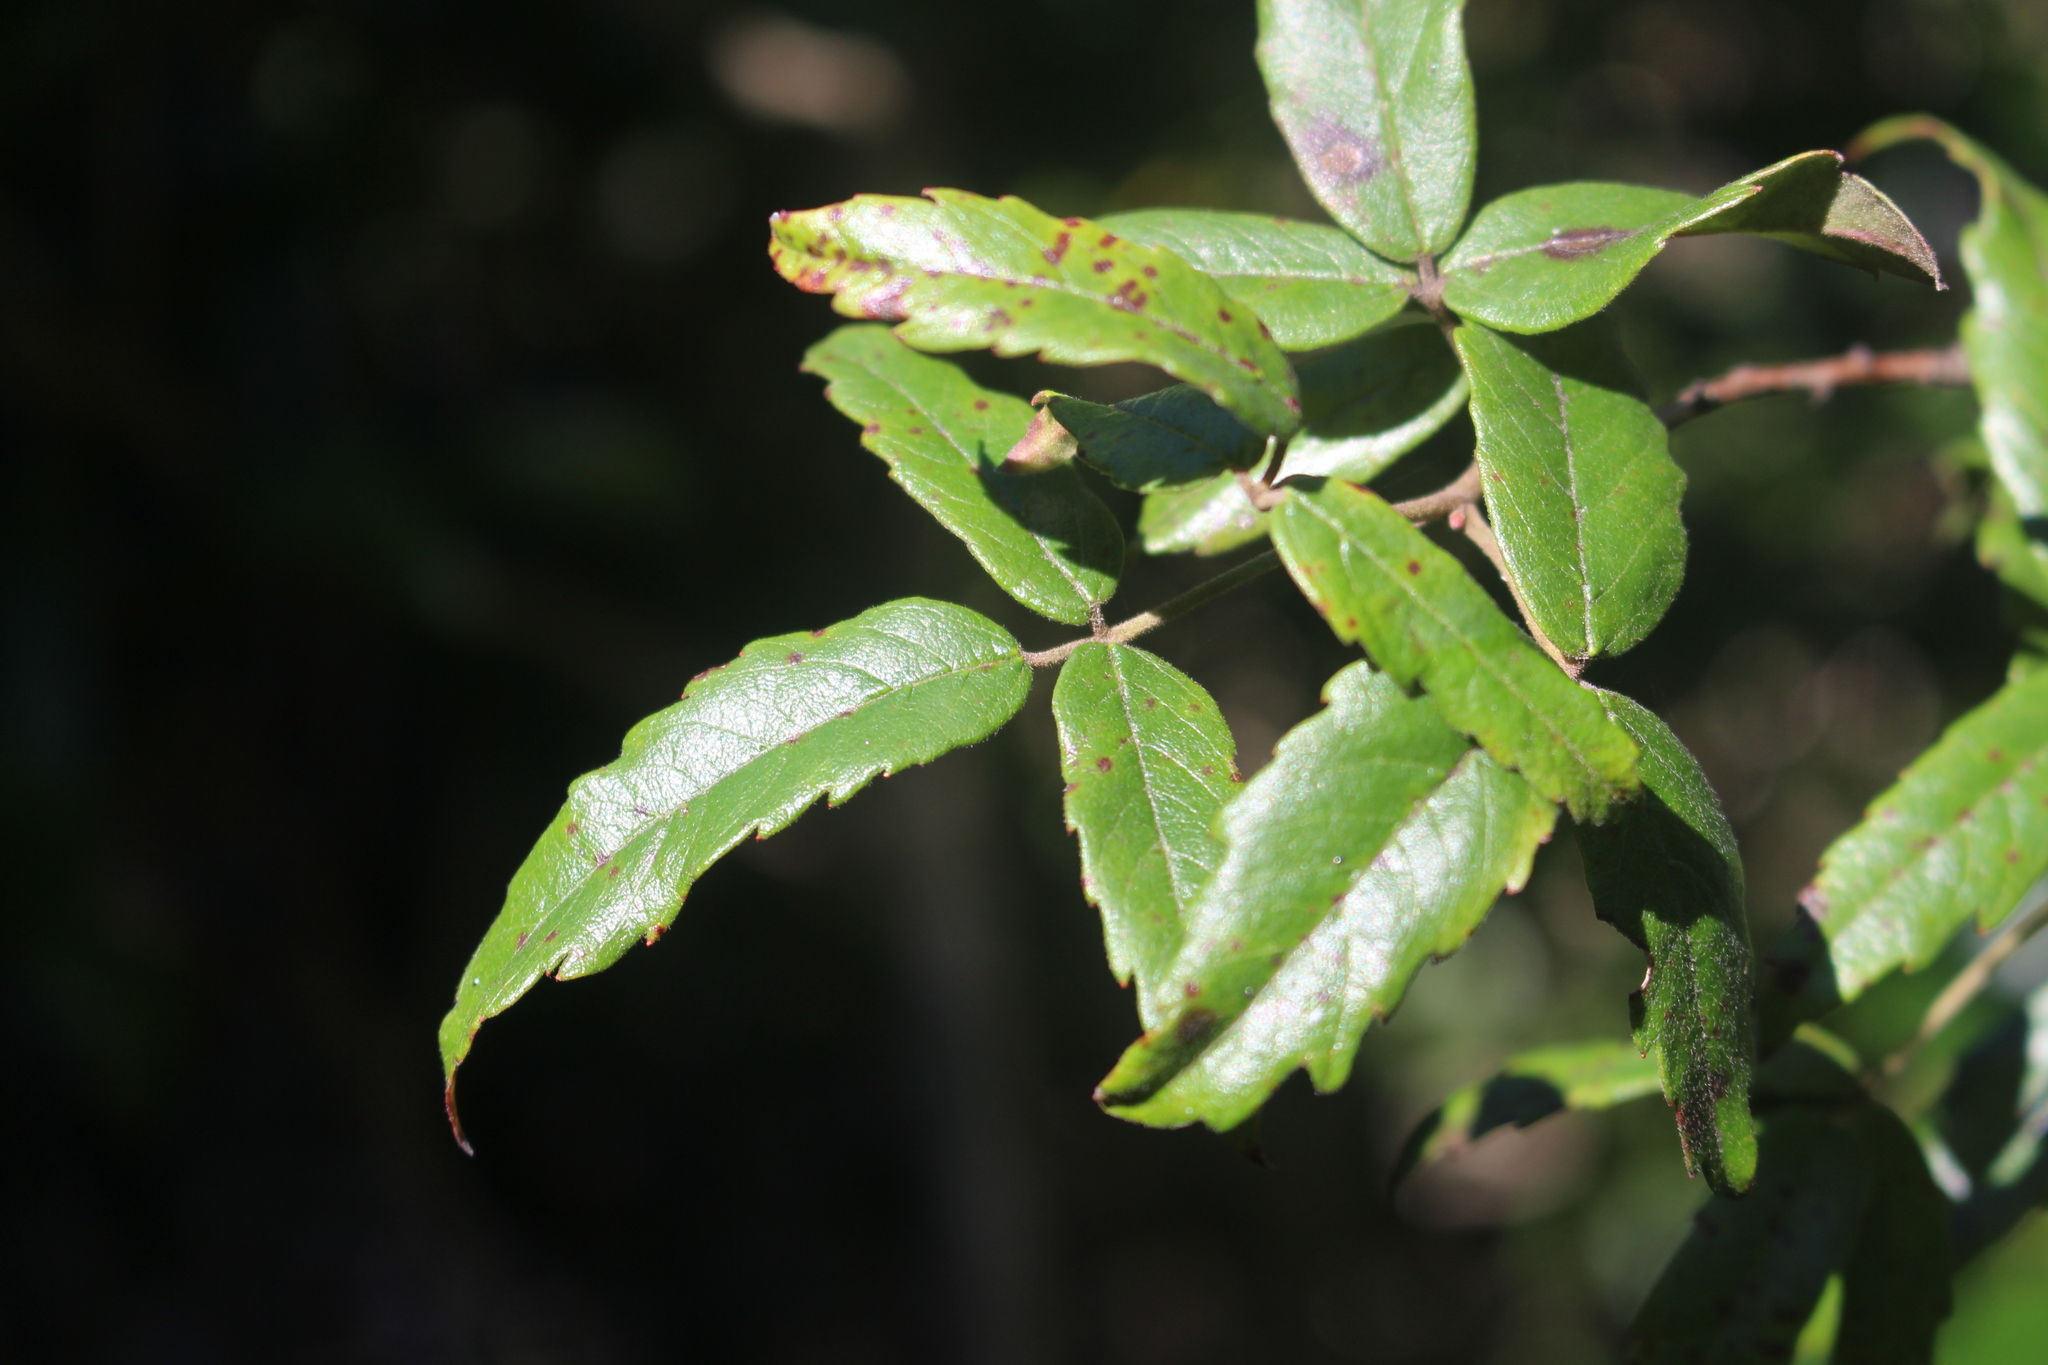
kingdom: Plantae
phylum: Tracheophyta
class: Magnoliopsida
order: Rosales
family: Rosaceae
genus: Rubus
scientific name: Rubus schmidelioides
